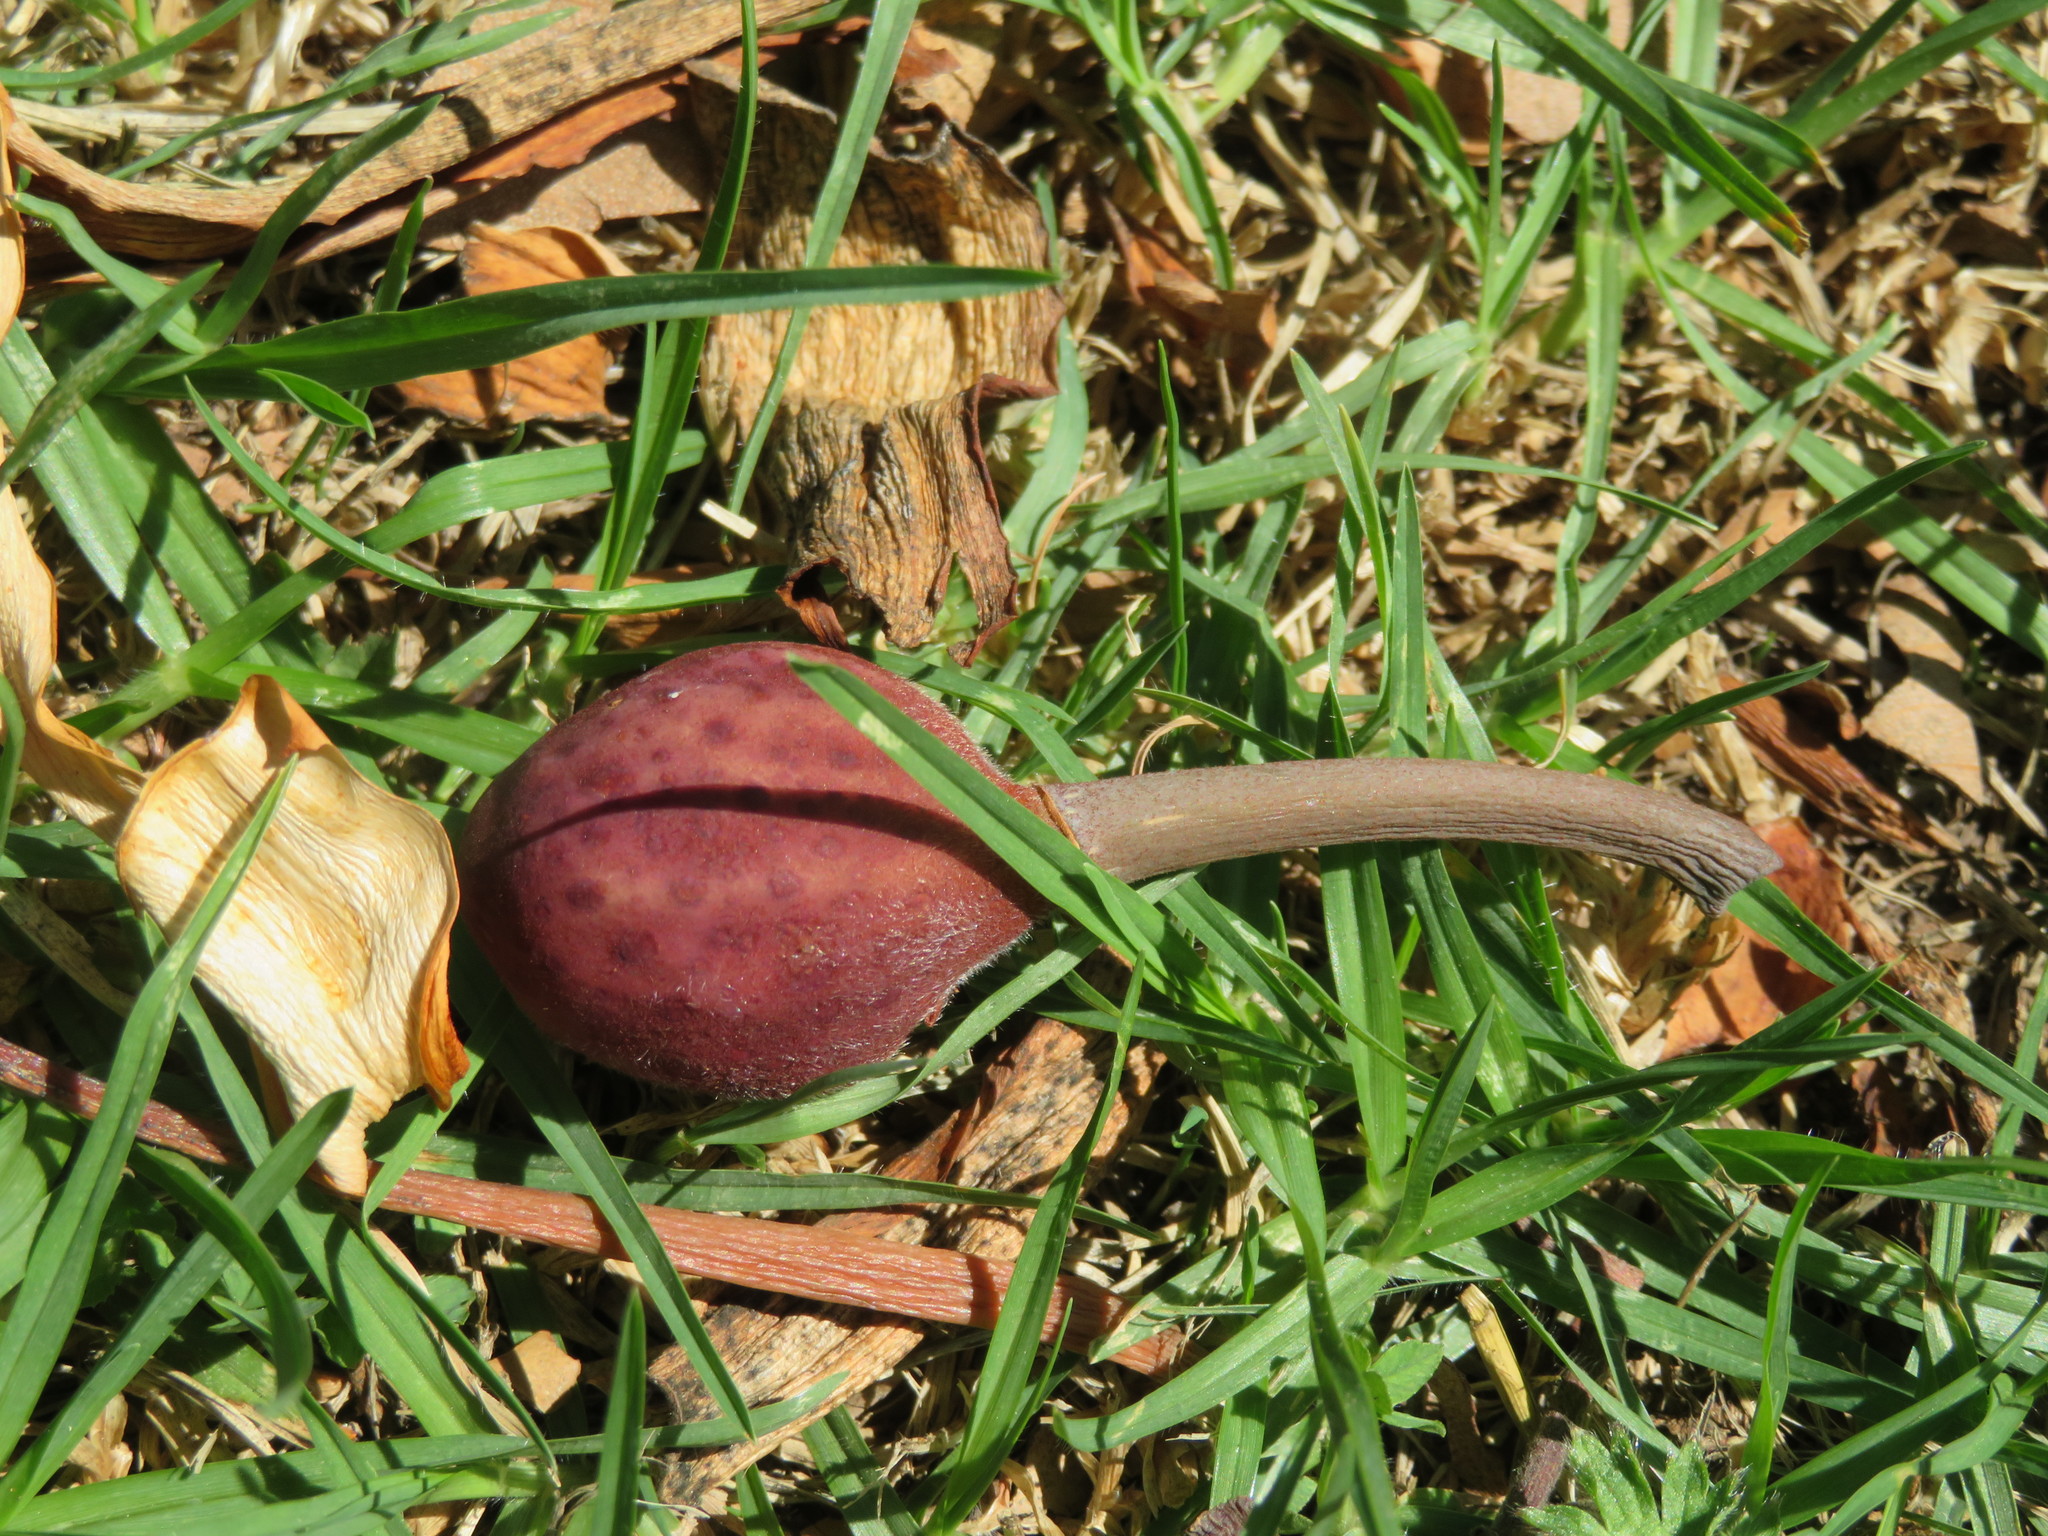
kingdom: Plantae
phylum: Tracheophyta
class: Magnoliopsida
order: Rosales
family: Moraceae
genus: Ficus
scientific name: Ficus macrophylla
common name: Moreton bay fig
